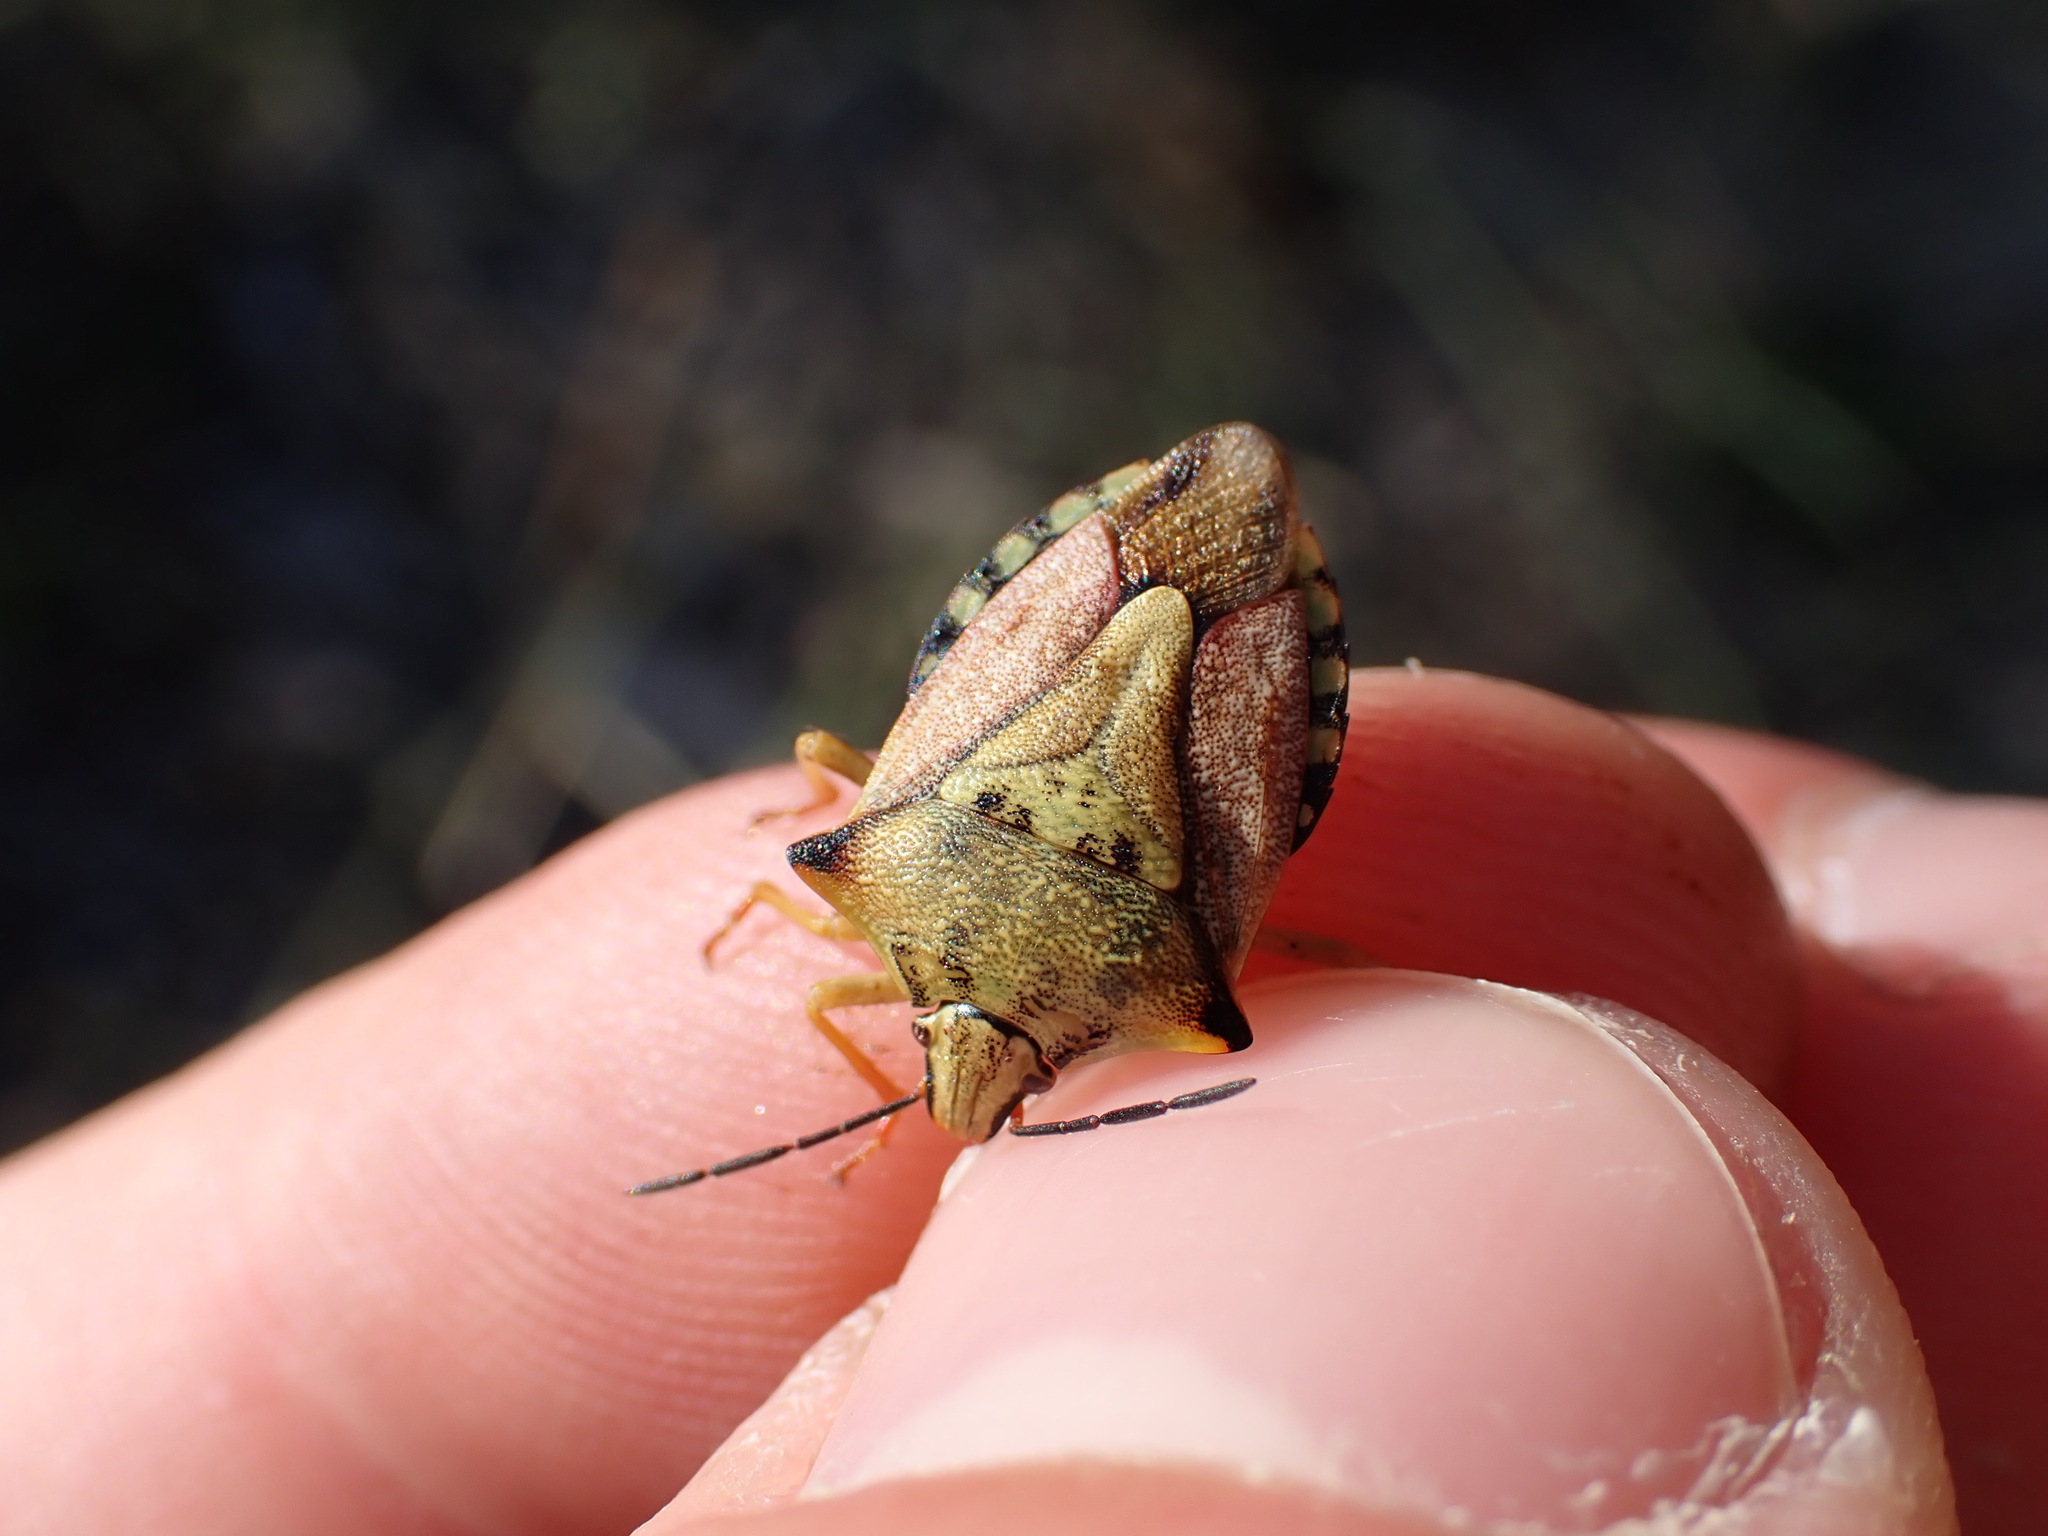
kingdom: Animalia
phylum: Arthropoda
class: Insecta
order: Hemiptera
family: Pentatomidae
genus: Carpocoris
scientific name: Carpocoris mediterraneus
